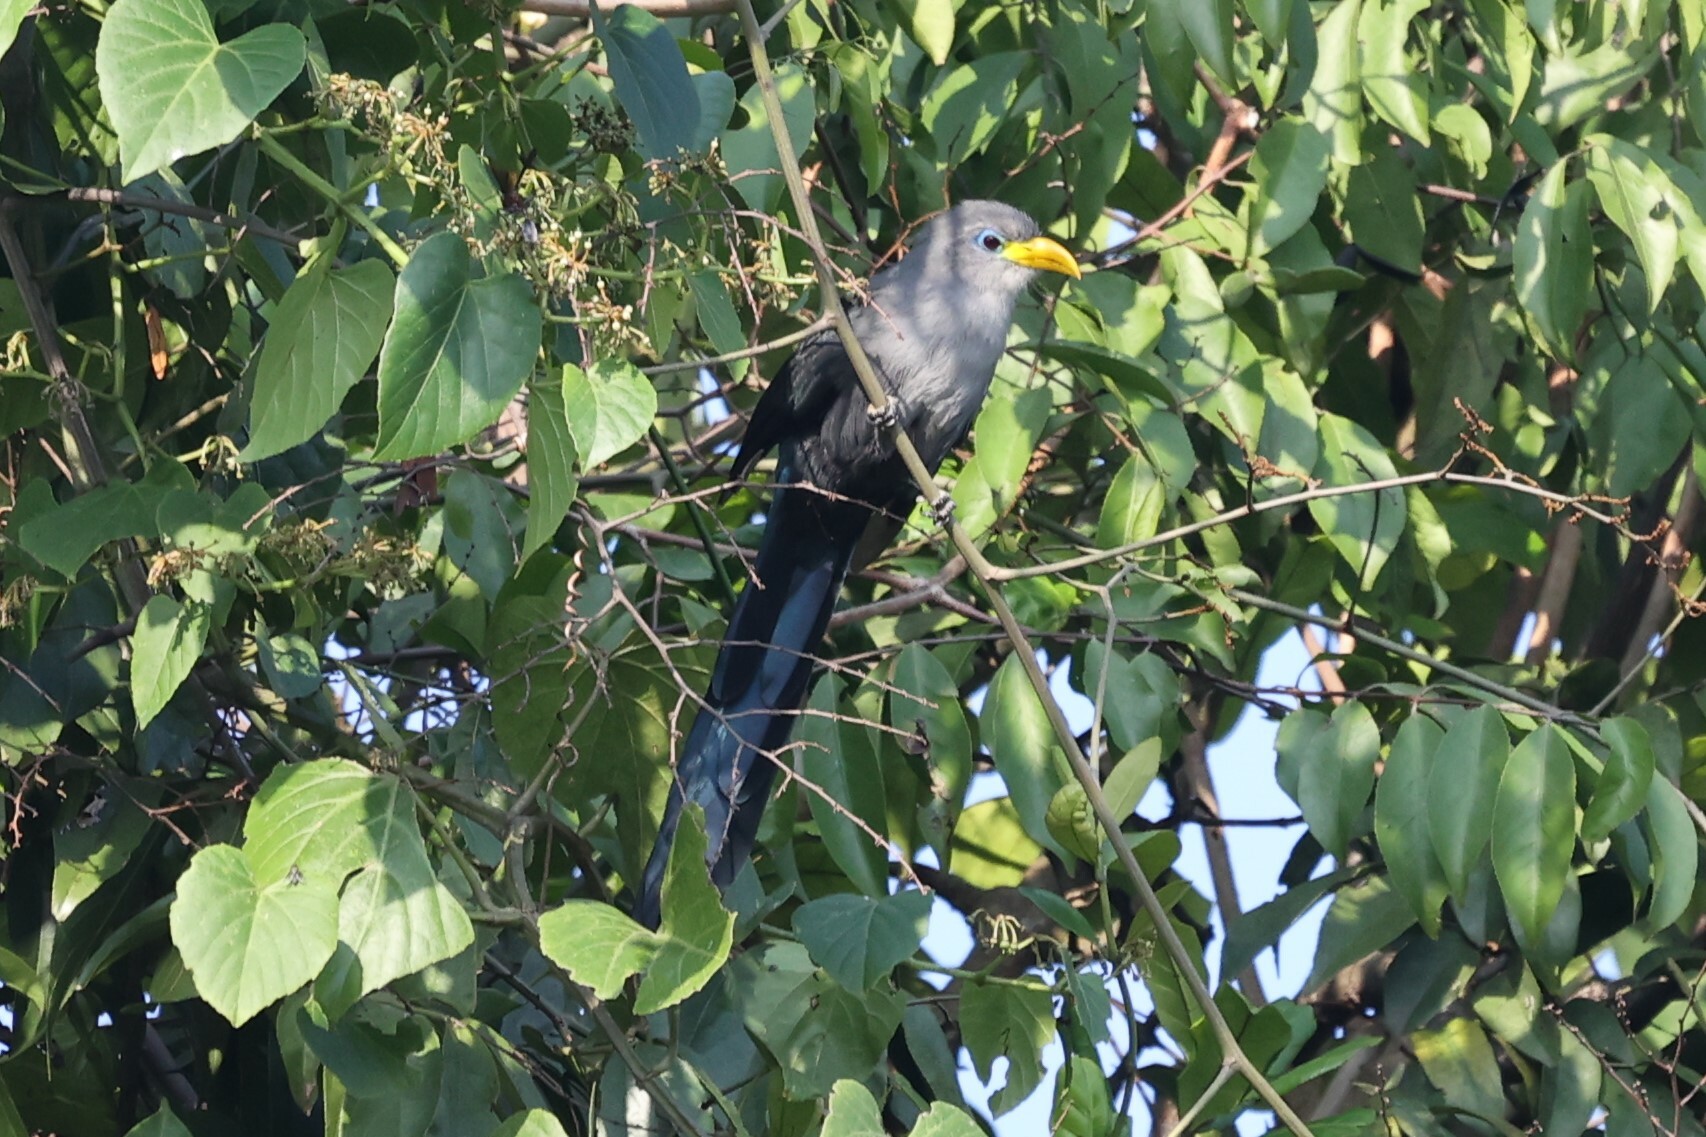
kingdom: Animalia
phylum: Chordata
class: Aves
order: Cuculiformes
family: Cuculidae
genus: Ceuthmochares
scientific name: Ceuthmochares aereus
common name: Blue malkoha
